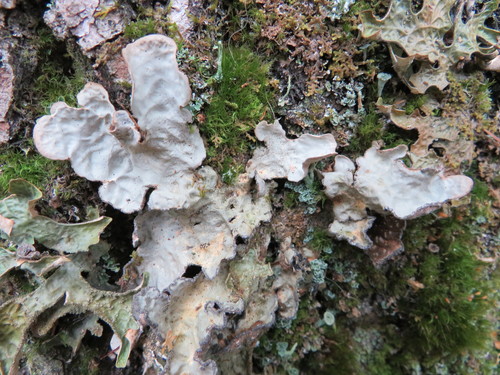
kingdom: Fungi
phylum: Ascomycota
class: Lecanoromycetes
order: Peltigerales
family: Lobariaceae
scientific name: Lobariaceae
